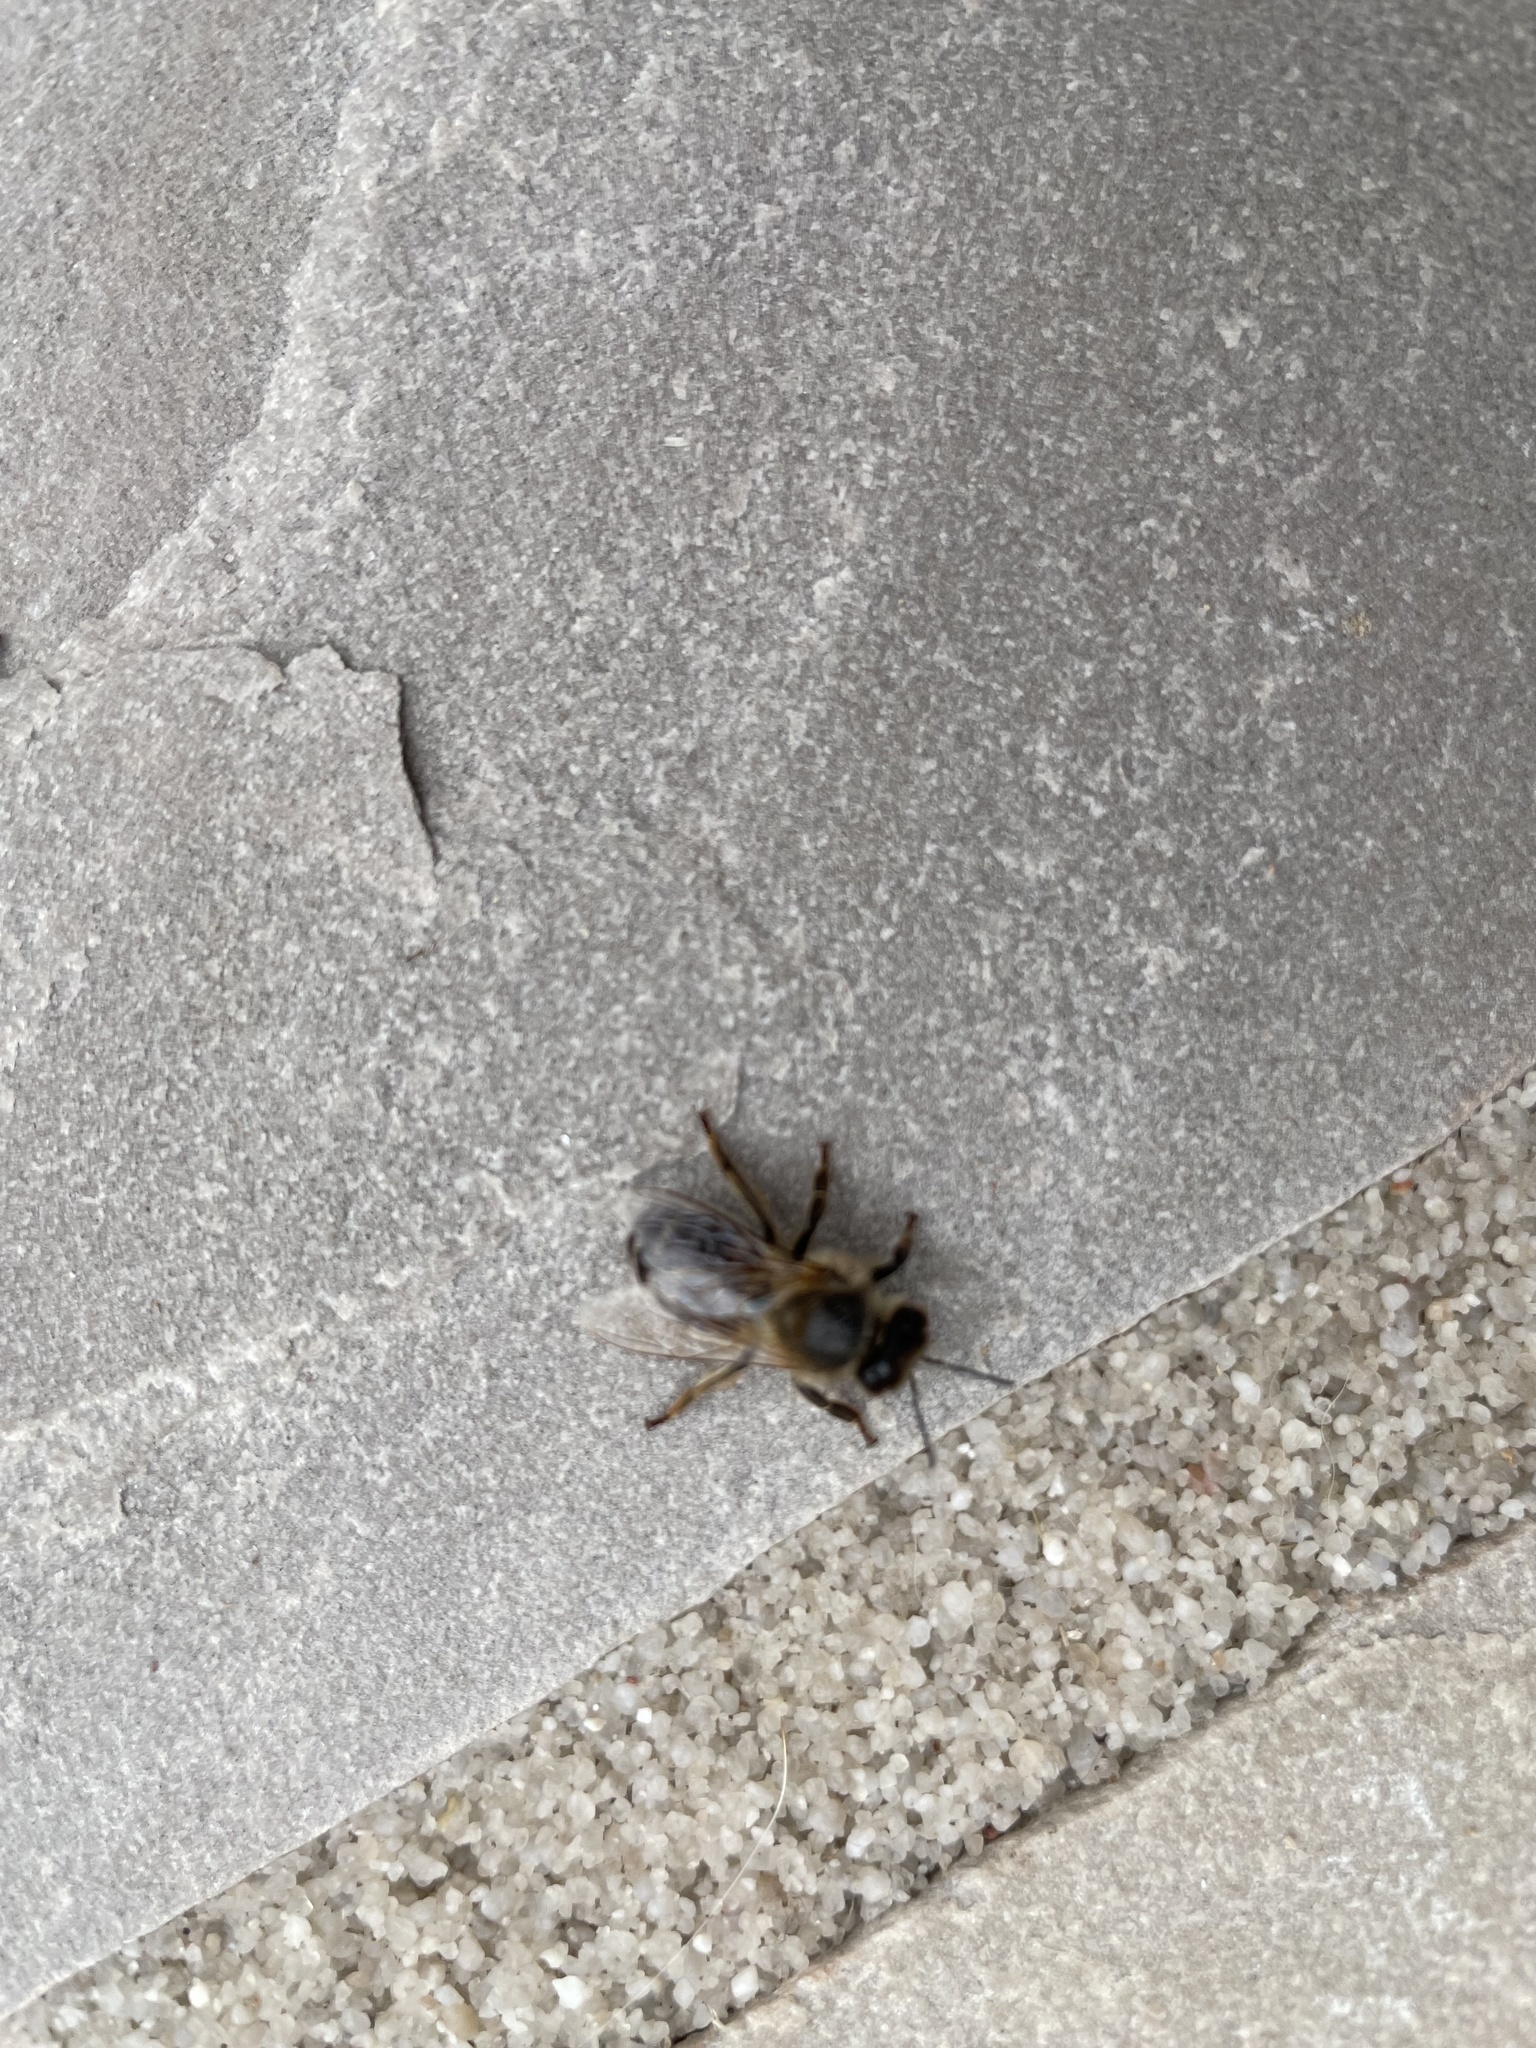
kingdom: Animalia
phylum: Arthropoda
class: Insecta
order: Hymenoptera
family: Apidae
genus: Apis
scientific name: Apis mellifera
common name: Honey bee
